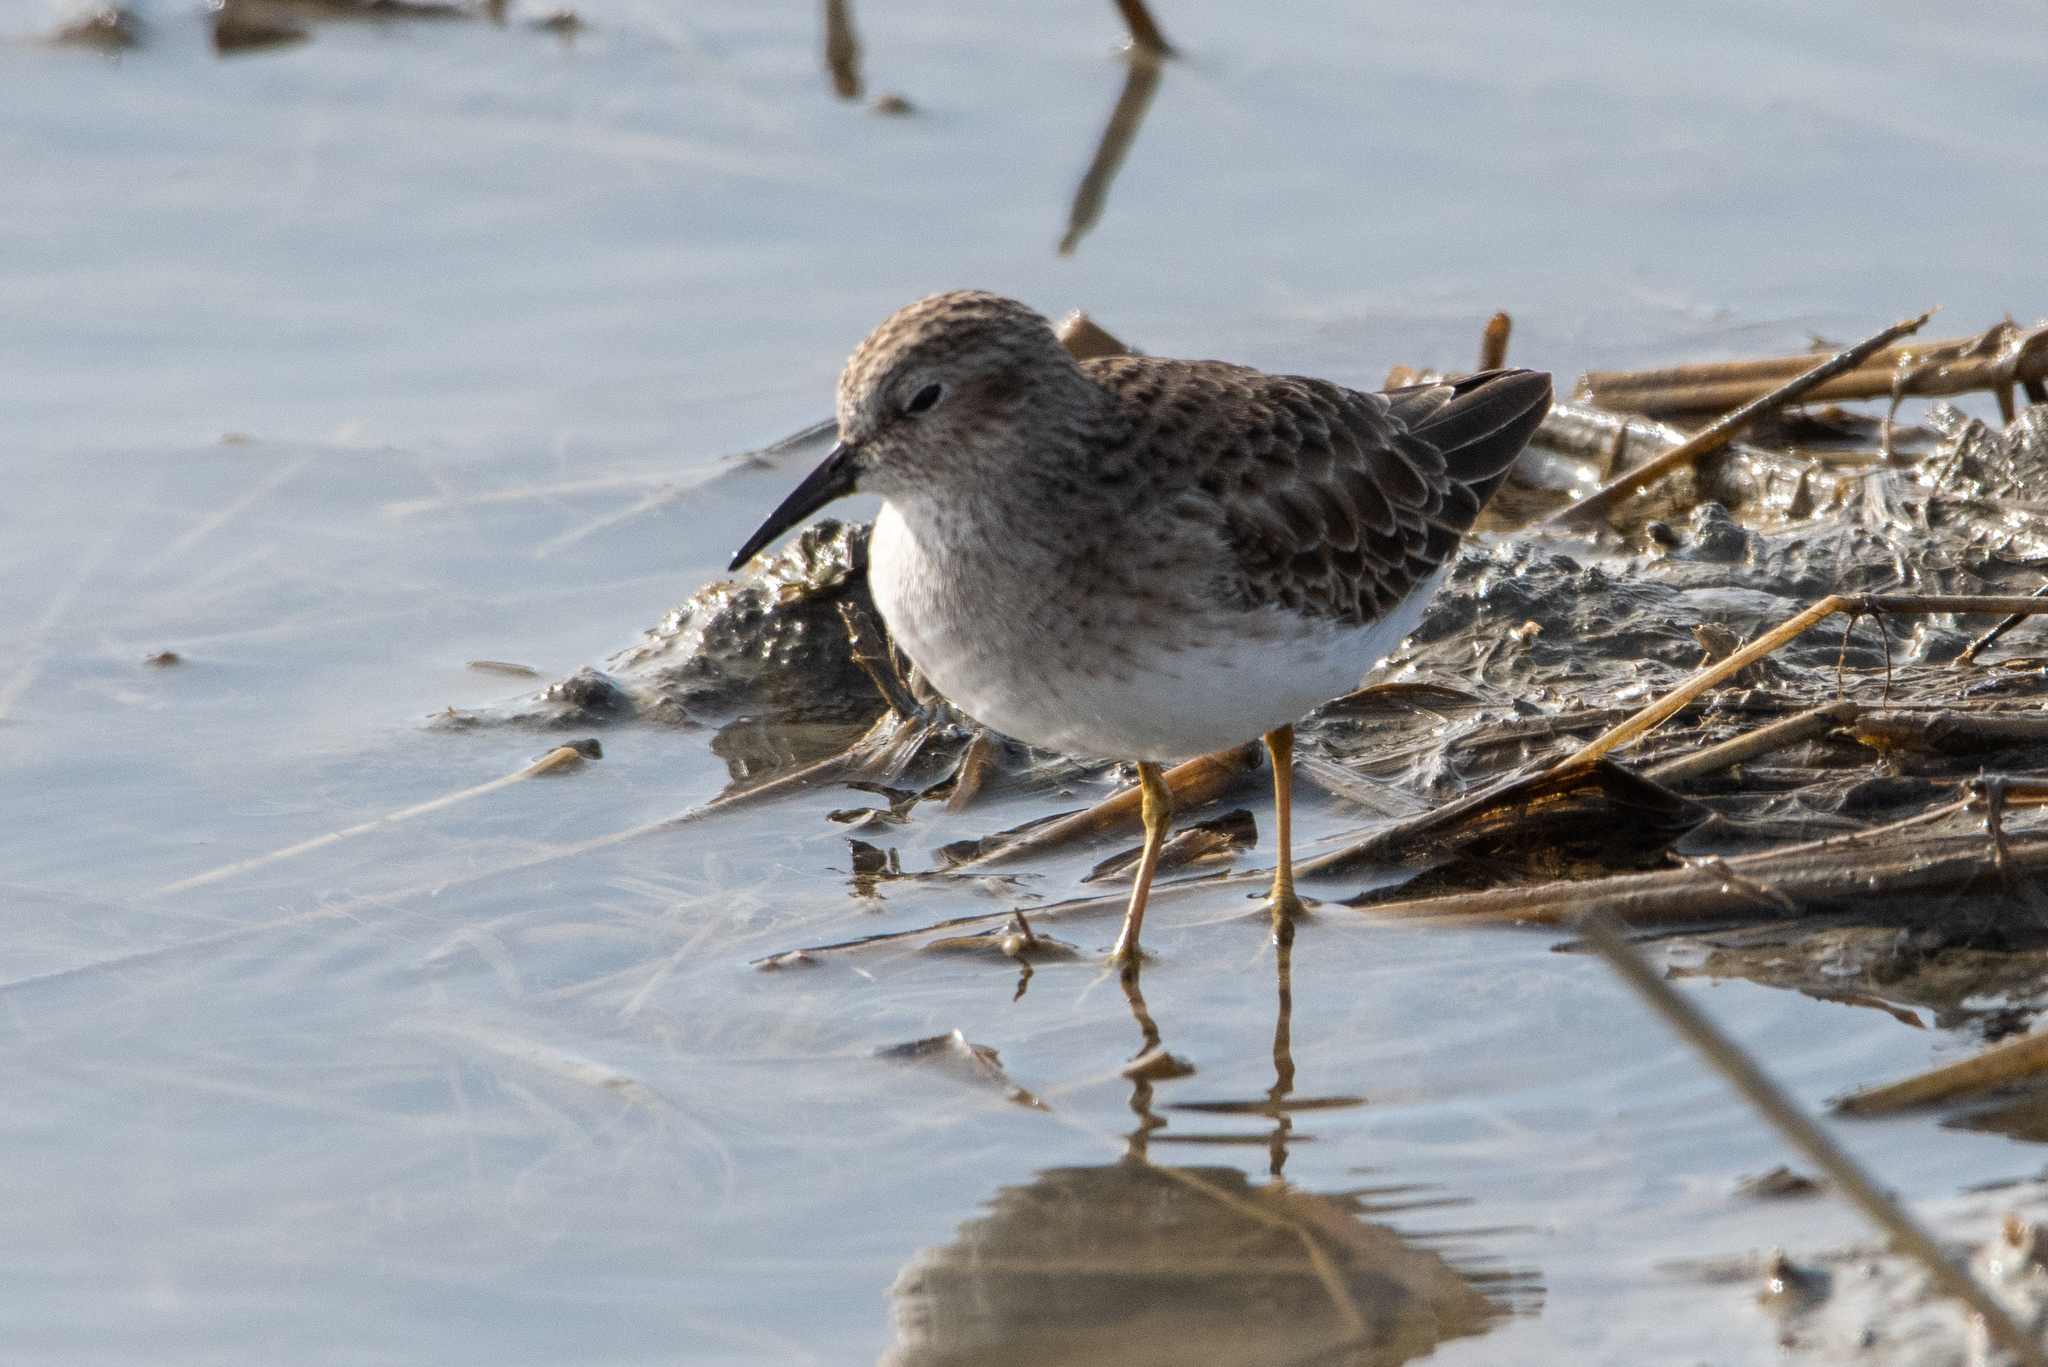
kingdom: Animalia
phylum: Chordata
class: Aves
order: Charadriiformes
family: Scolopacidae
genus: Calidris
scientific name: Calidris minutilla
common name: Least sandpiper
